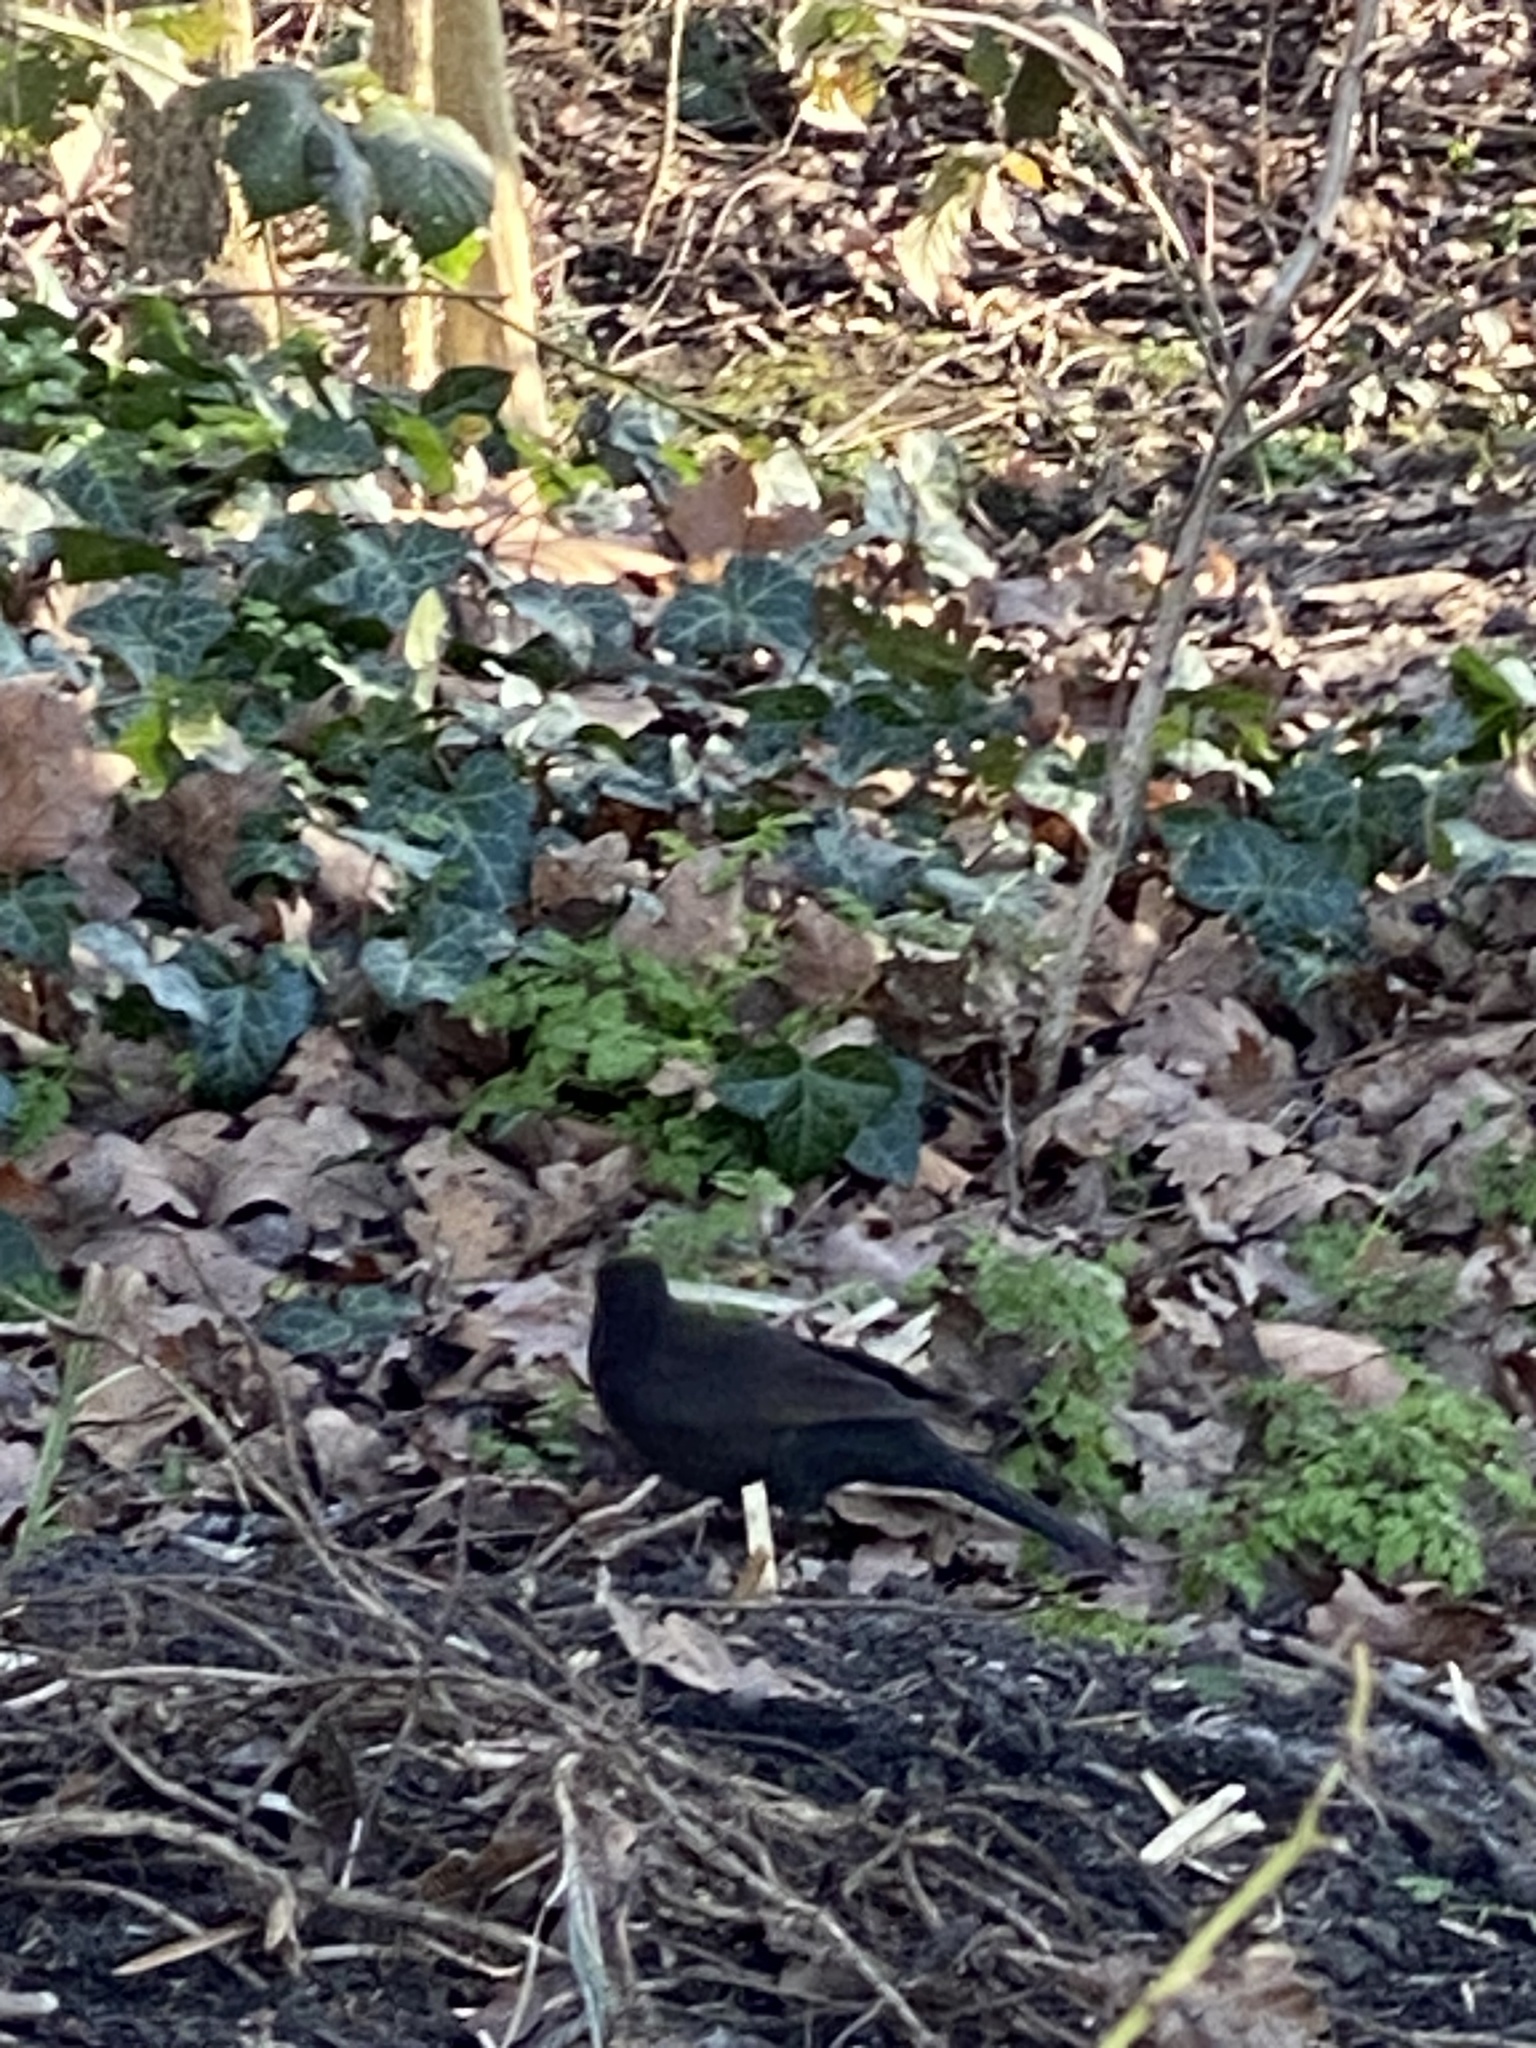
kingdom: Animalia
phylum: Chordata
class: Aves
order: Passeriformes
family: Turdidae
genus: Turdus
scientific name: Turdus merula
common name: Common blackbird
